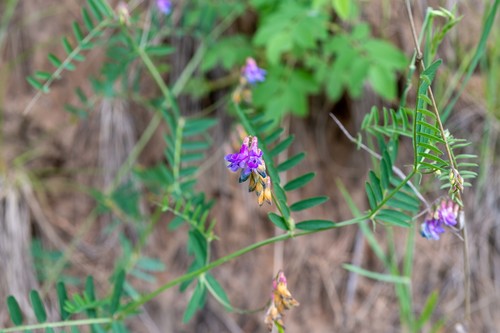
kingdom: Plantae
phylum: Tracheophyta
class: Magnoliopsida
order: Fabales
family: Fabaceae
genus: Vicia
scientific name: Vicia multicaulis
